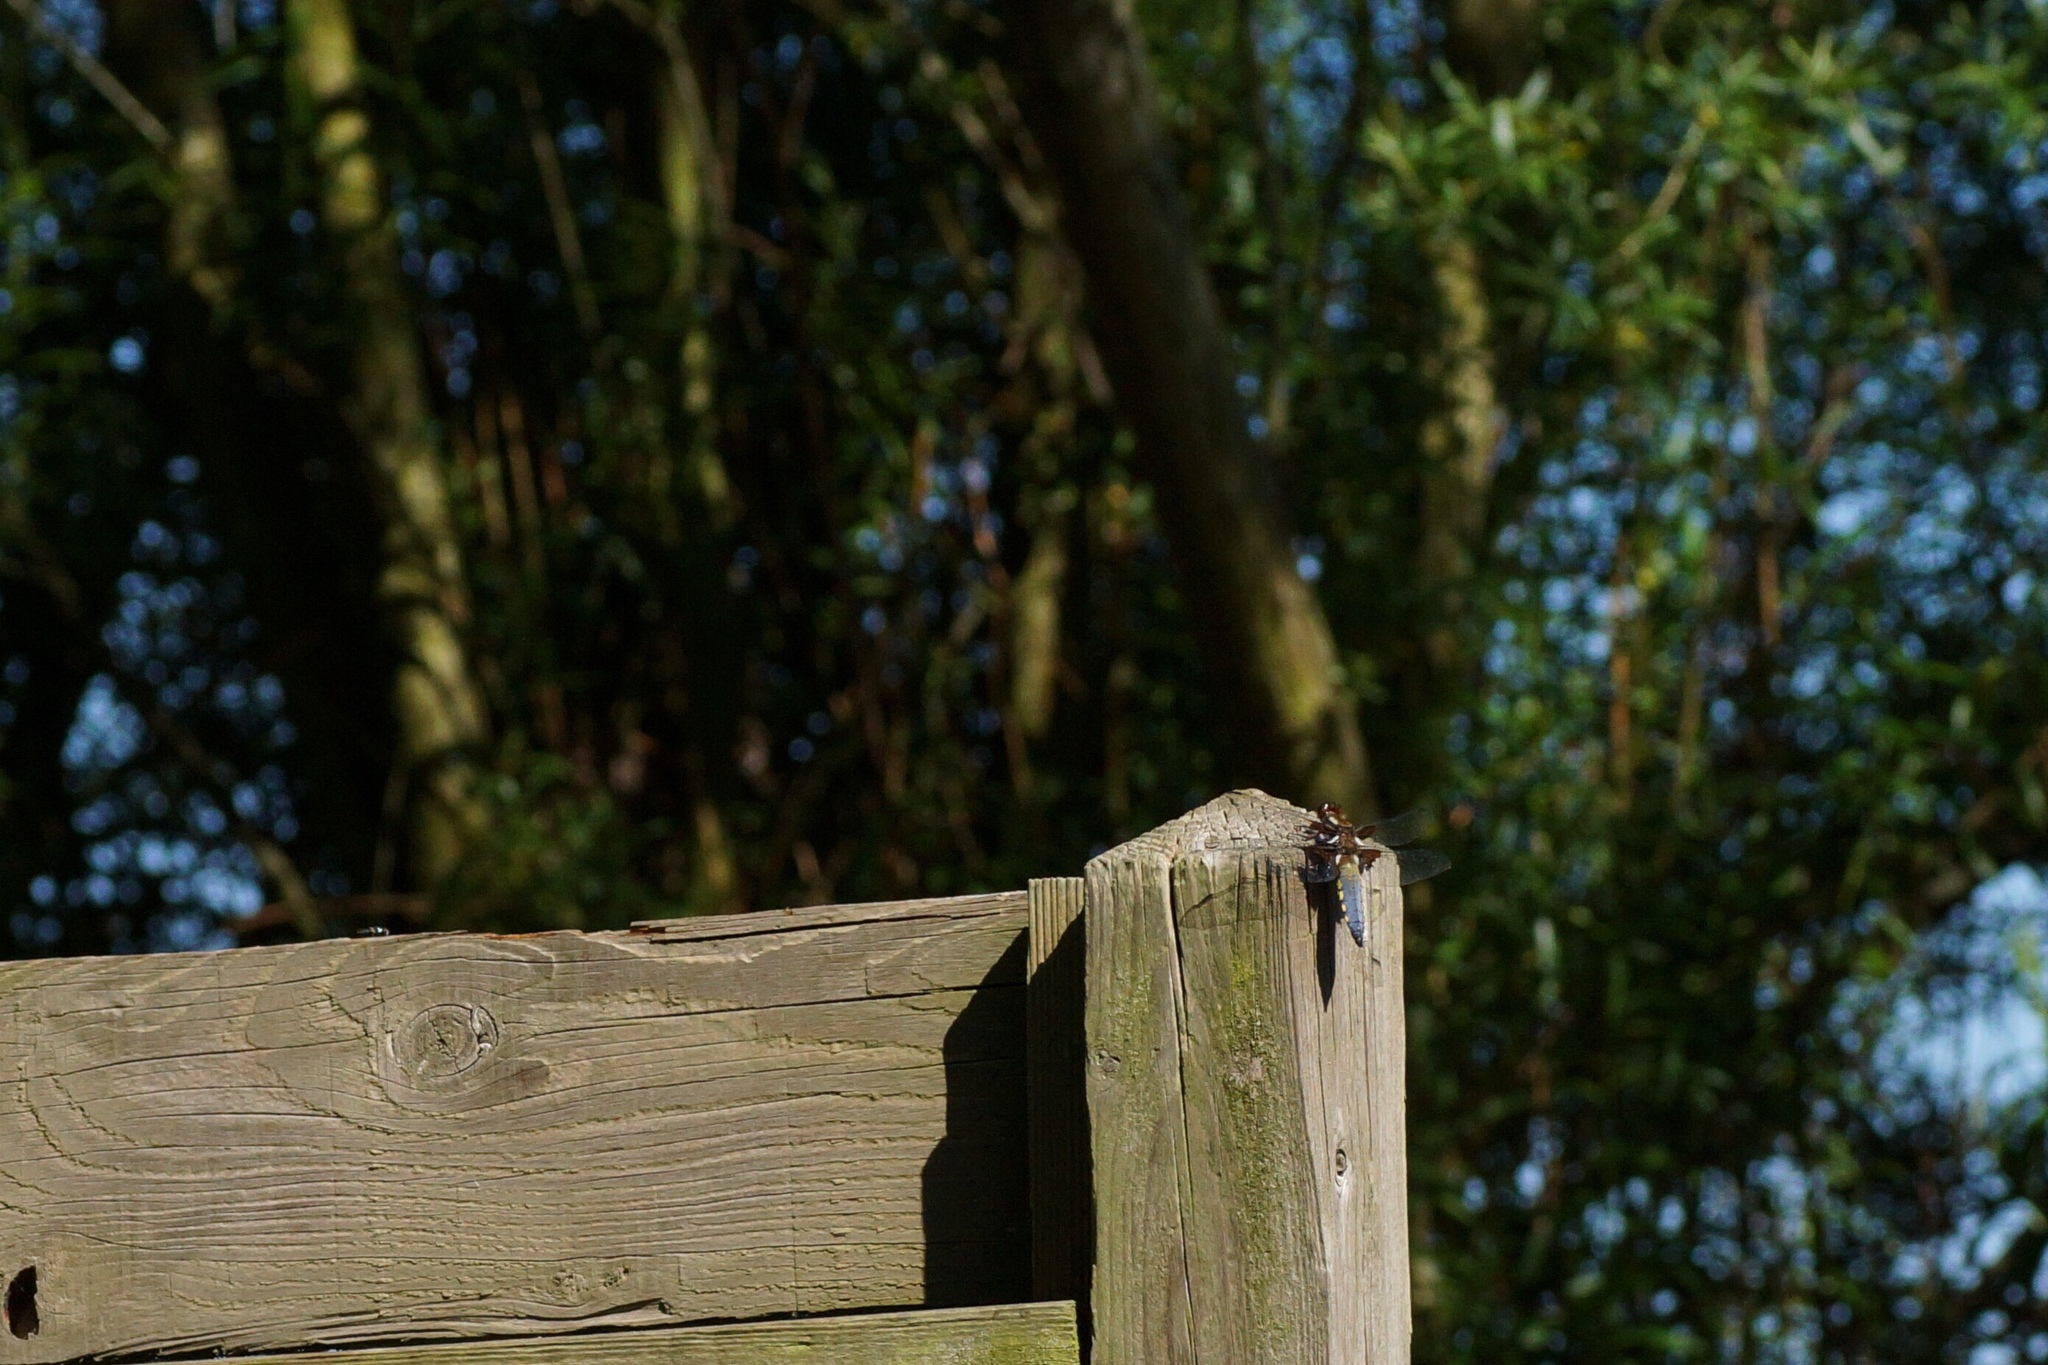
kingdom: Animalia
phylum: Arthropoda
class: Insecta
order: Odonata
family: Libellulidae
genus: Libellula
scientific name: Libellula depressa
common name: Broad-bodied chaser
